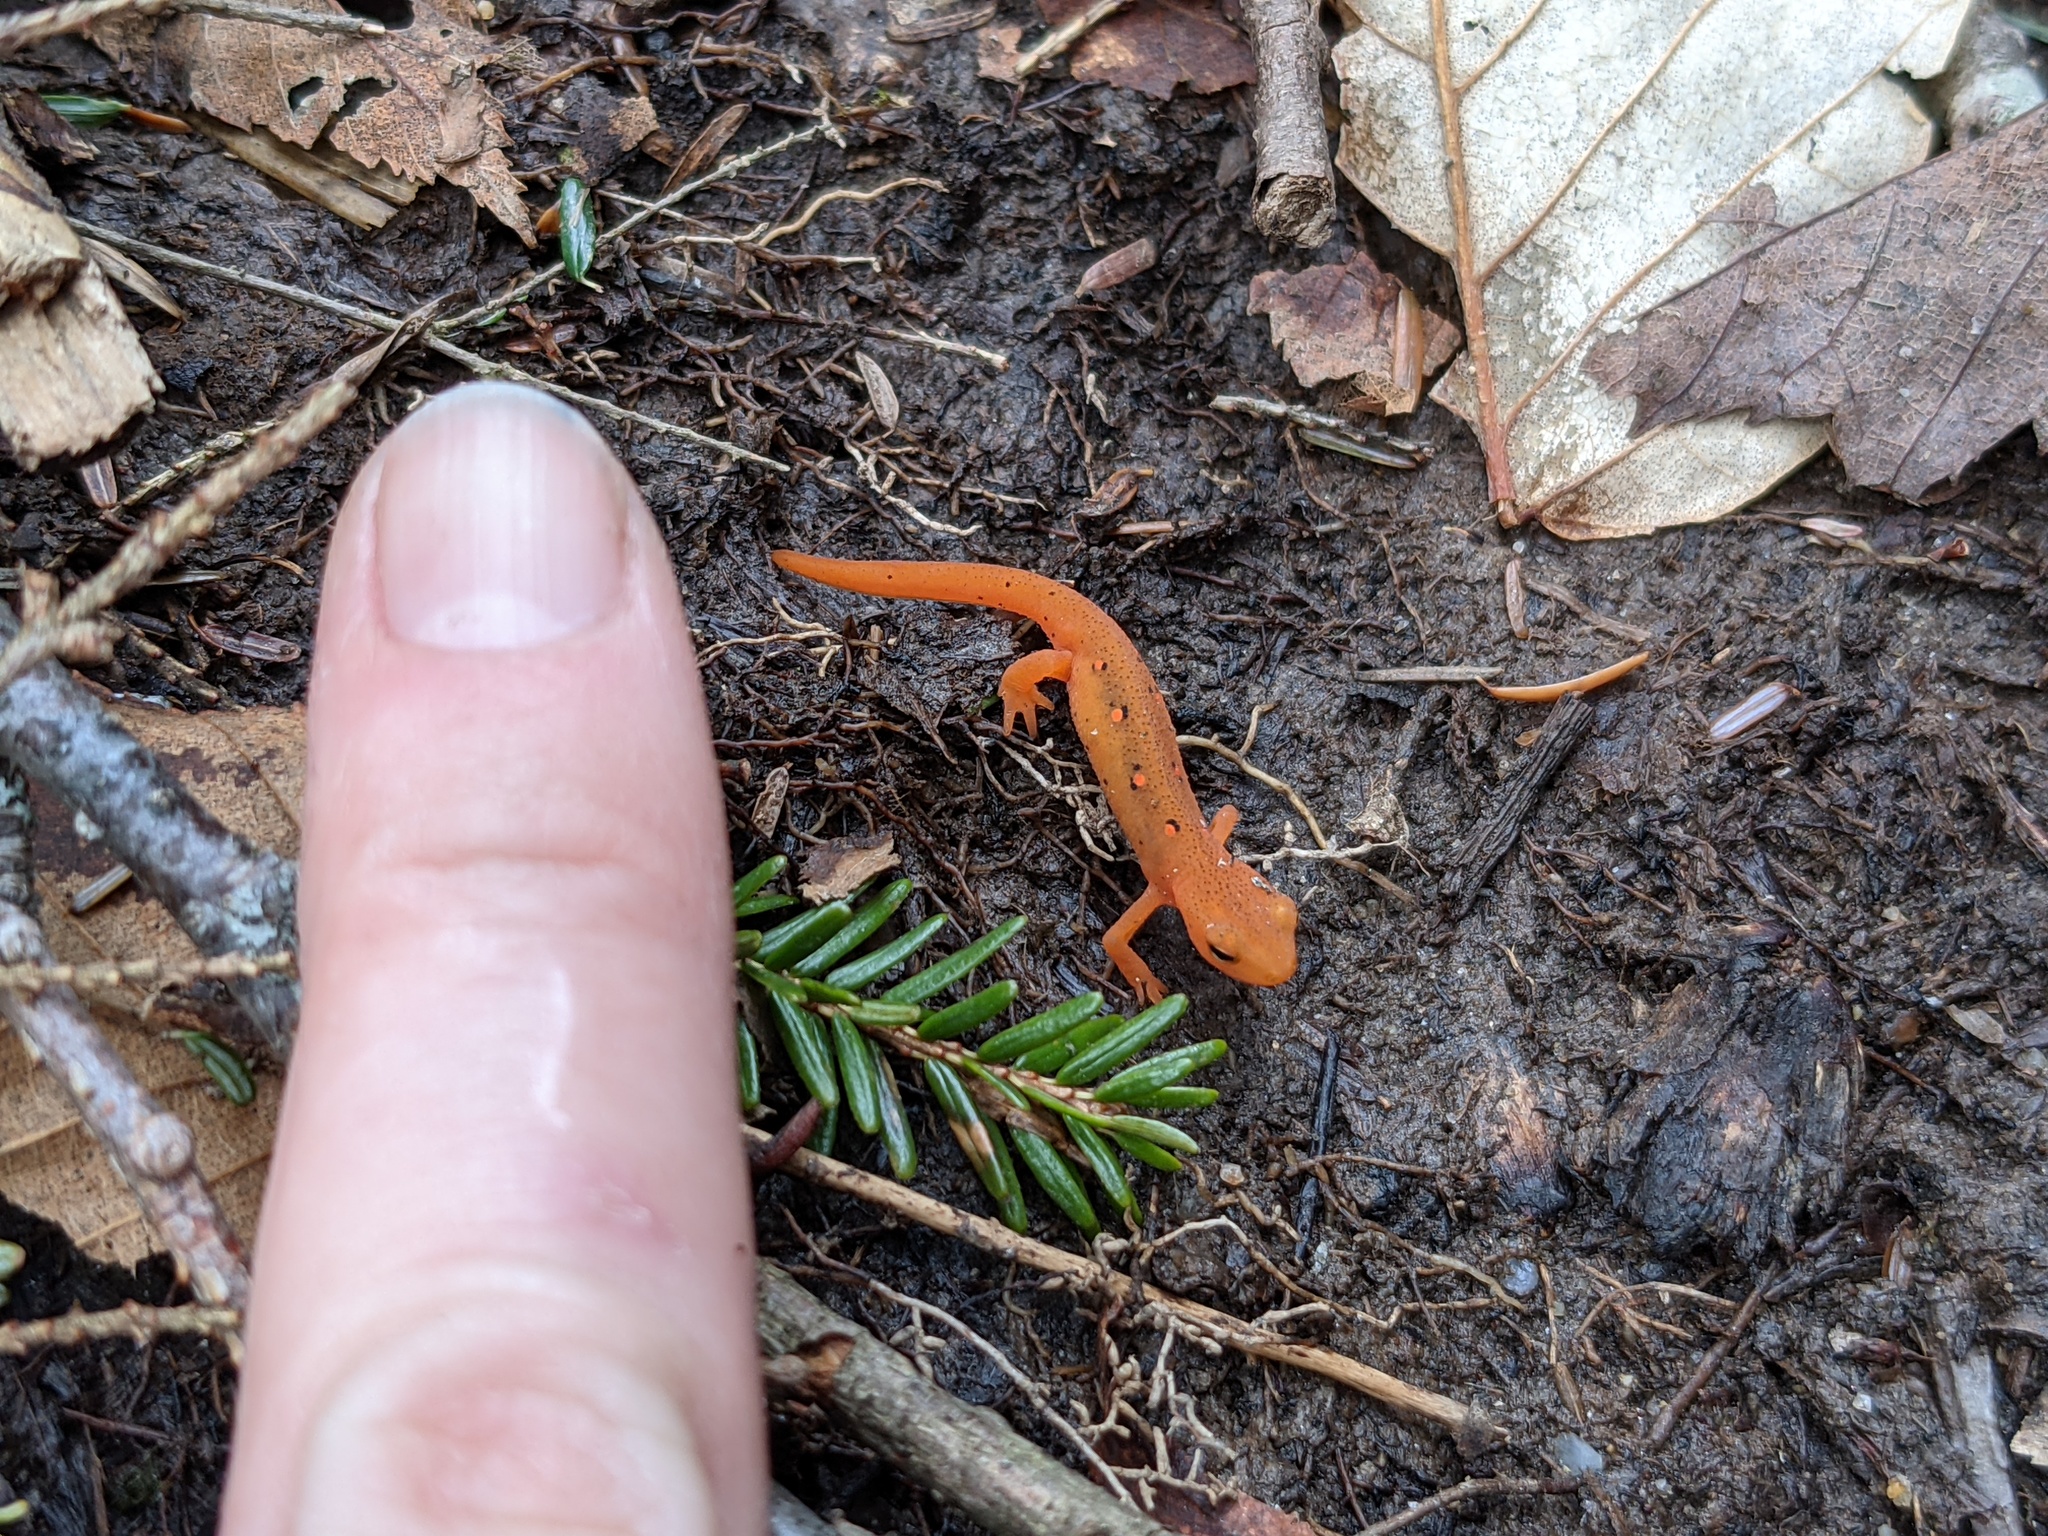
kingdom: Animalia
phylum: Chordata
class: Amphibia
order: Caudata
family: Salamandridae
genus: Notophthalmus
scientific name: Notophthalmus viridescens
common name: Eastern newt
